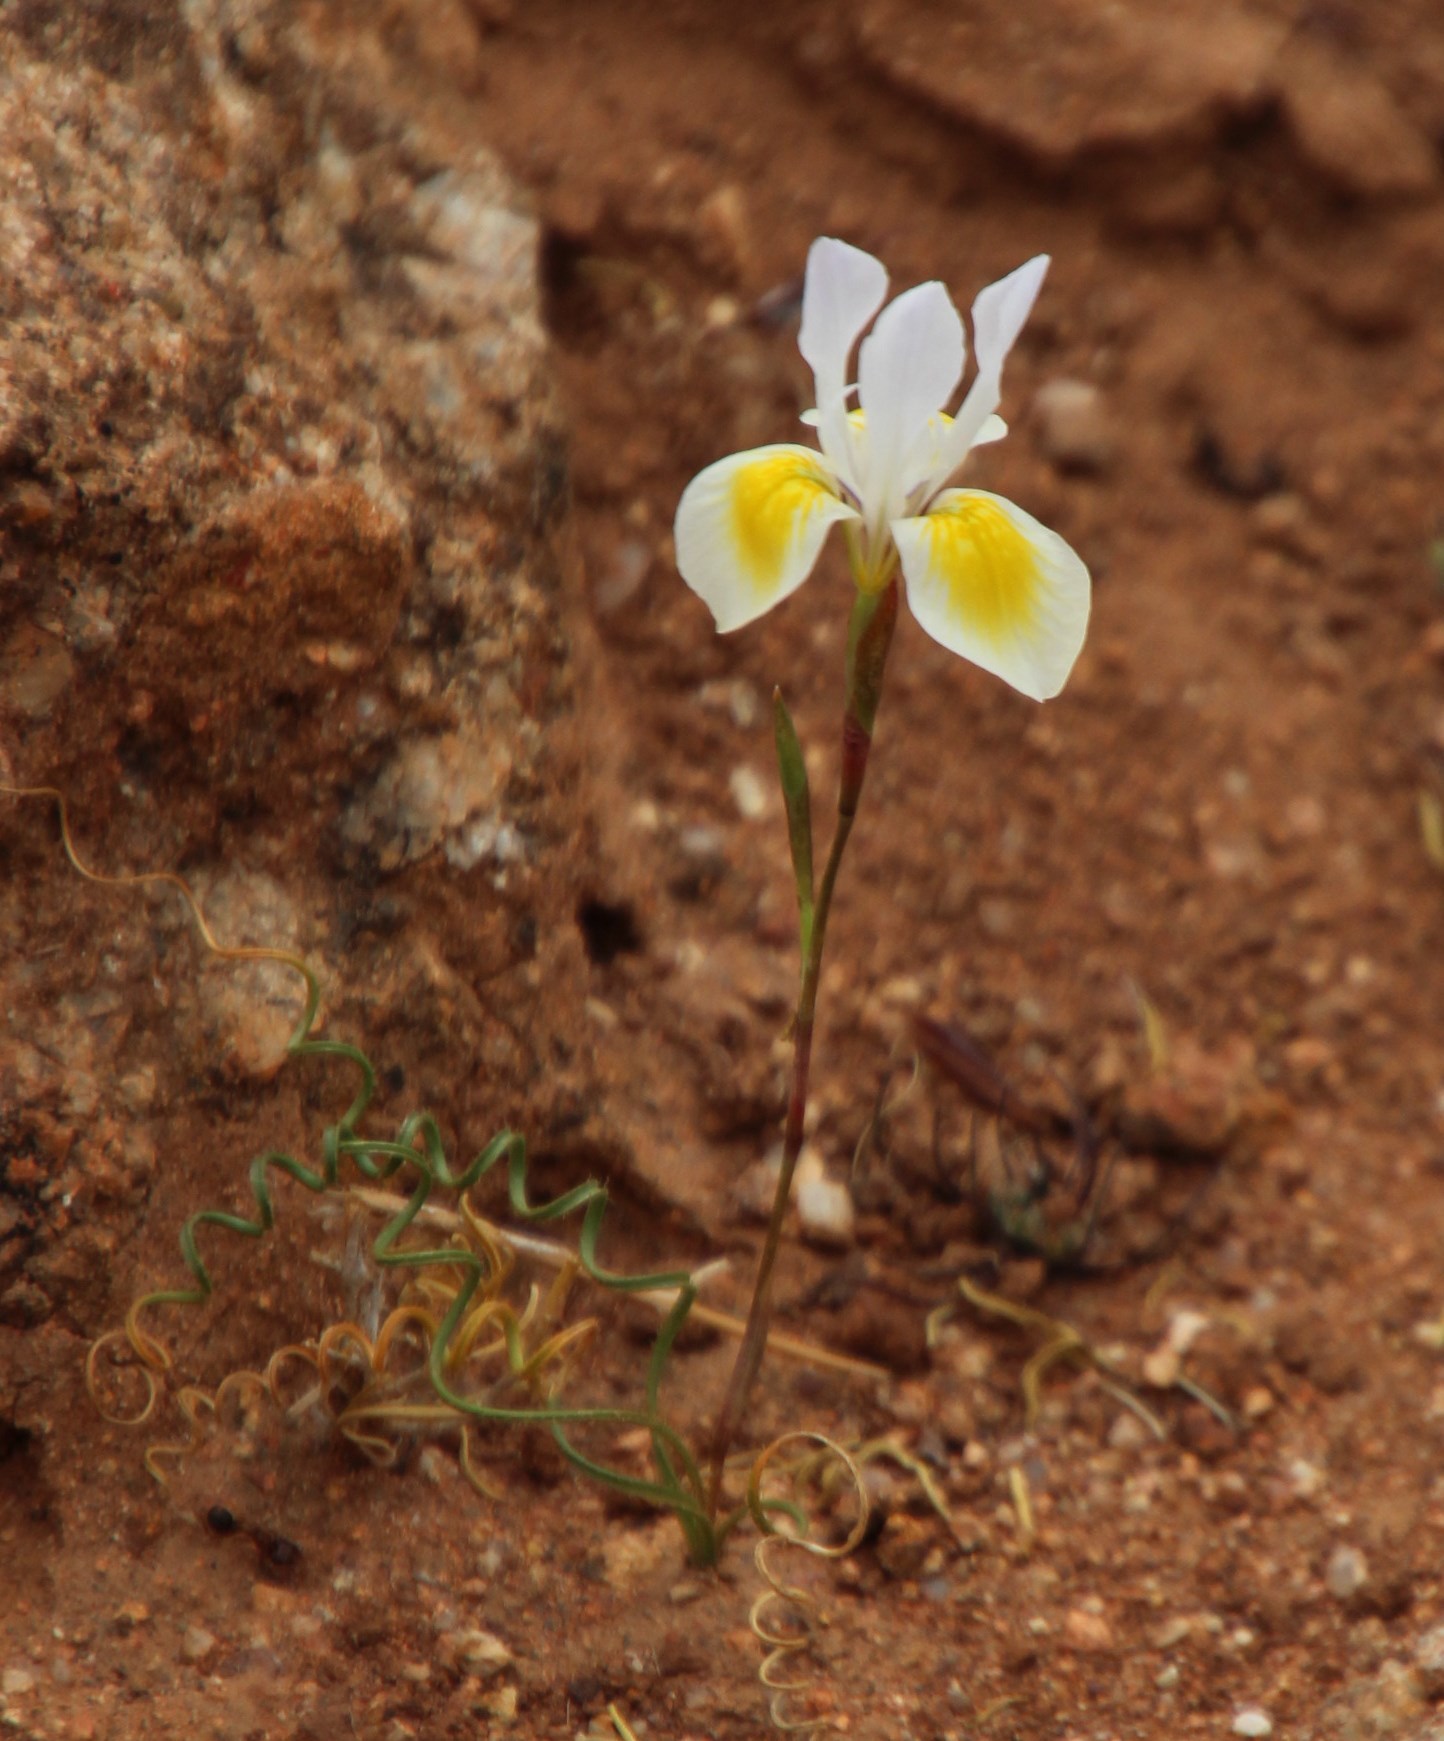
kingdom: Plantae
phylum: Tracheophyta
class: Liliopsida
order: Asparagales
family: Iridaceae
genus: Moraea
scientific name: Moraea serpentina
